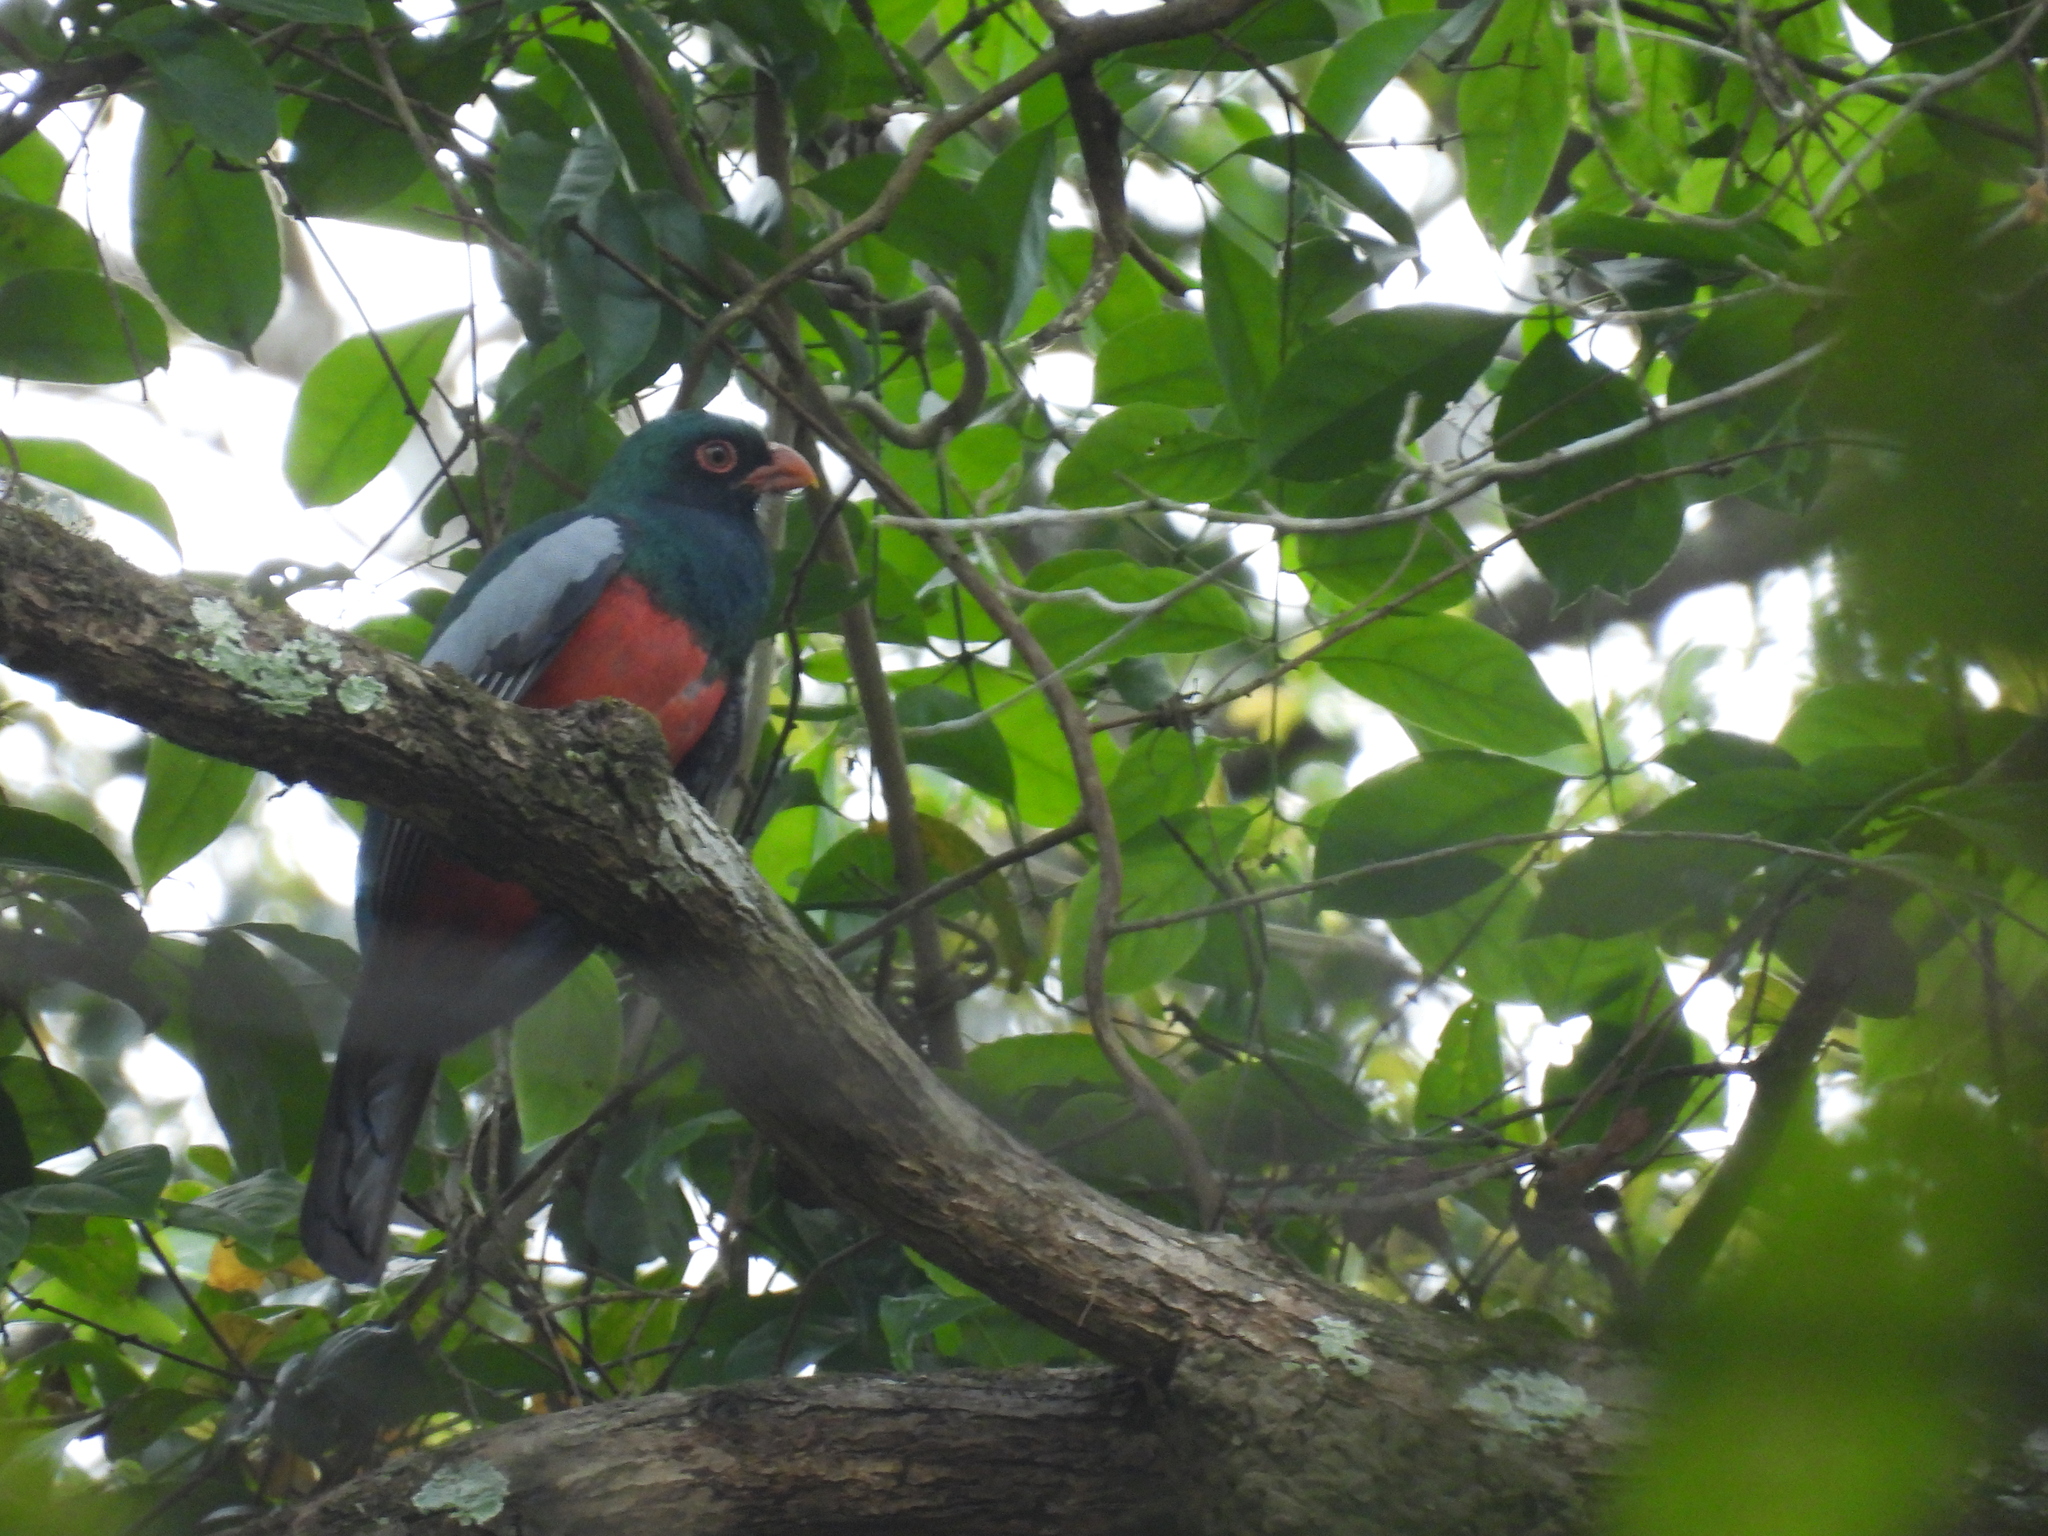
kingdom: Animalia
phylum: Chordata
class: Aves
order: Trogoniformes
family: Trogonidae
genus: Trogon
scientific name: Trogon massena
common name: Slaty-tailed trogon
